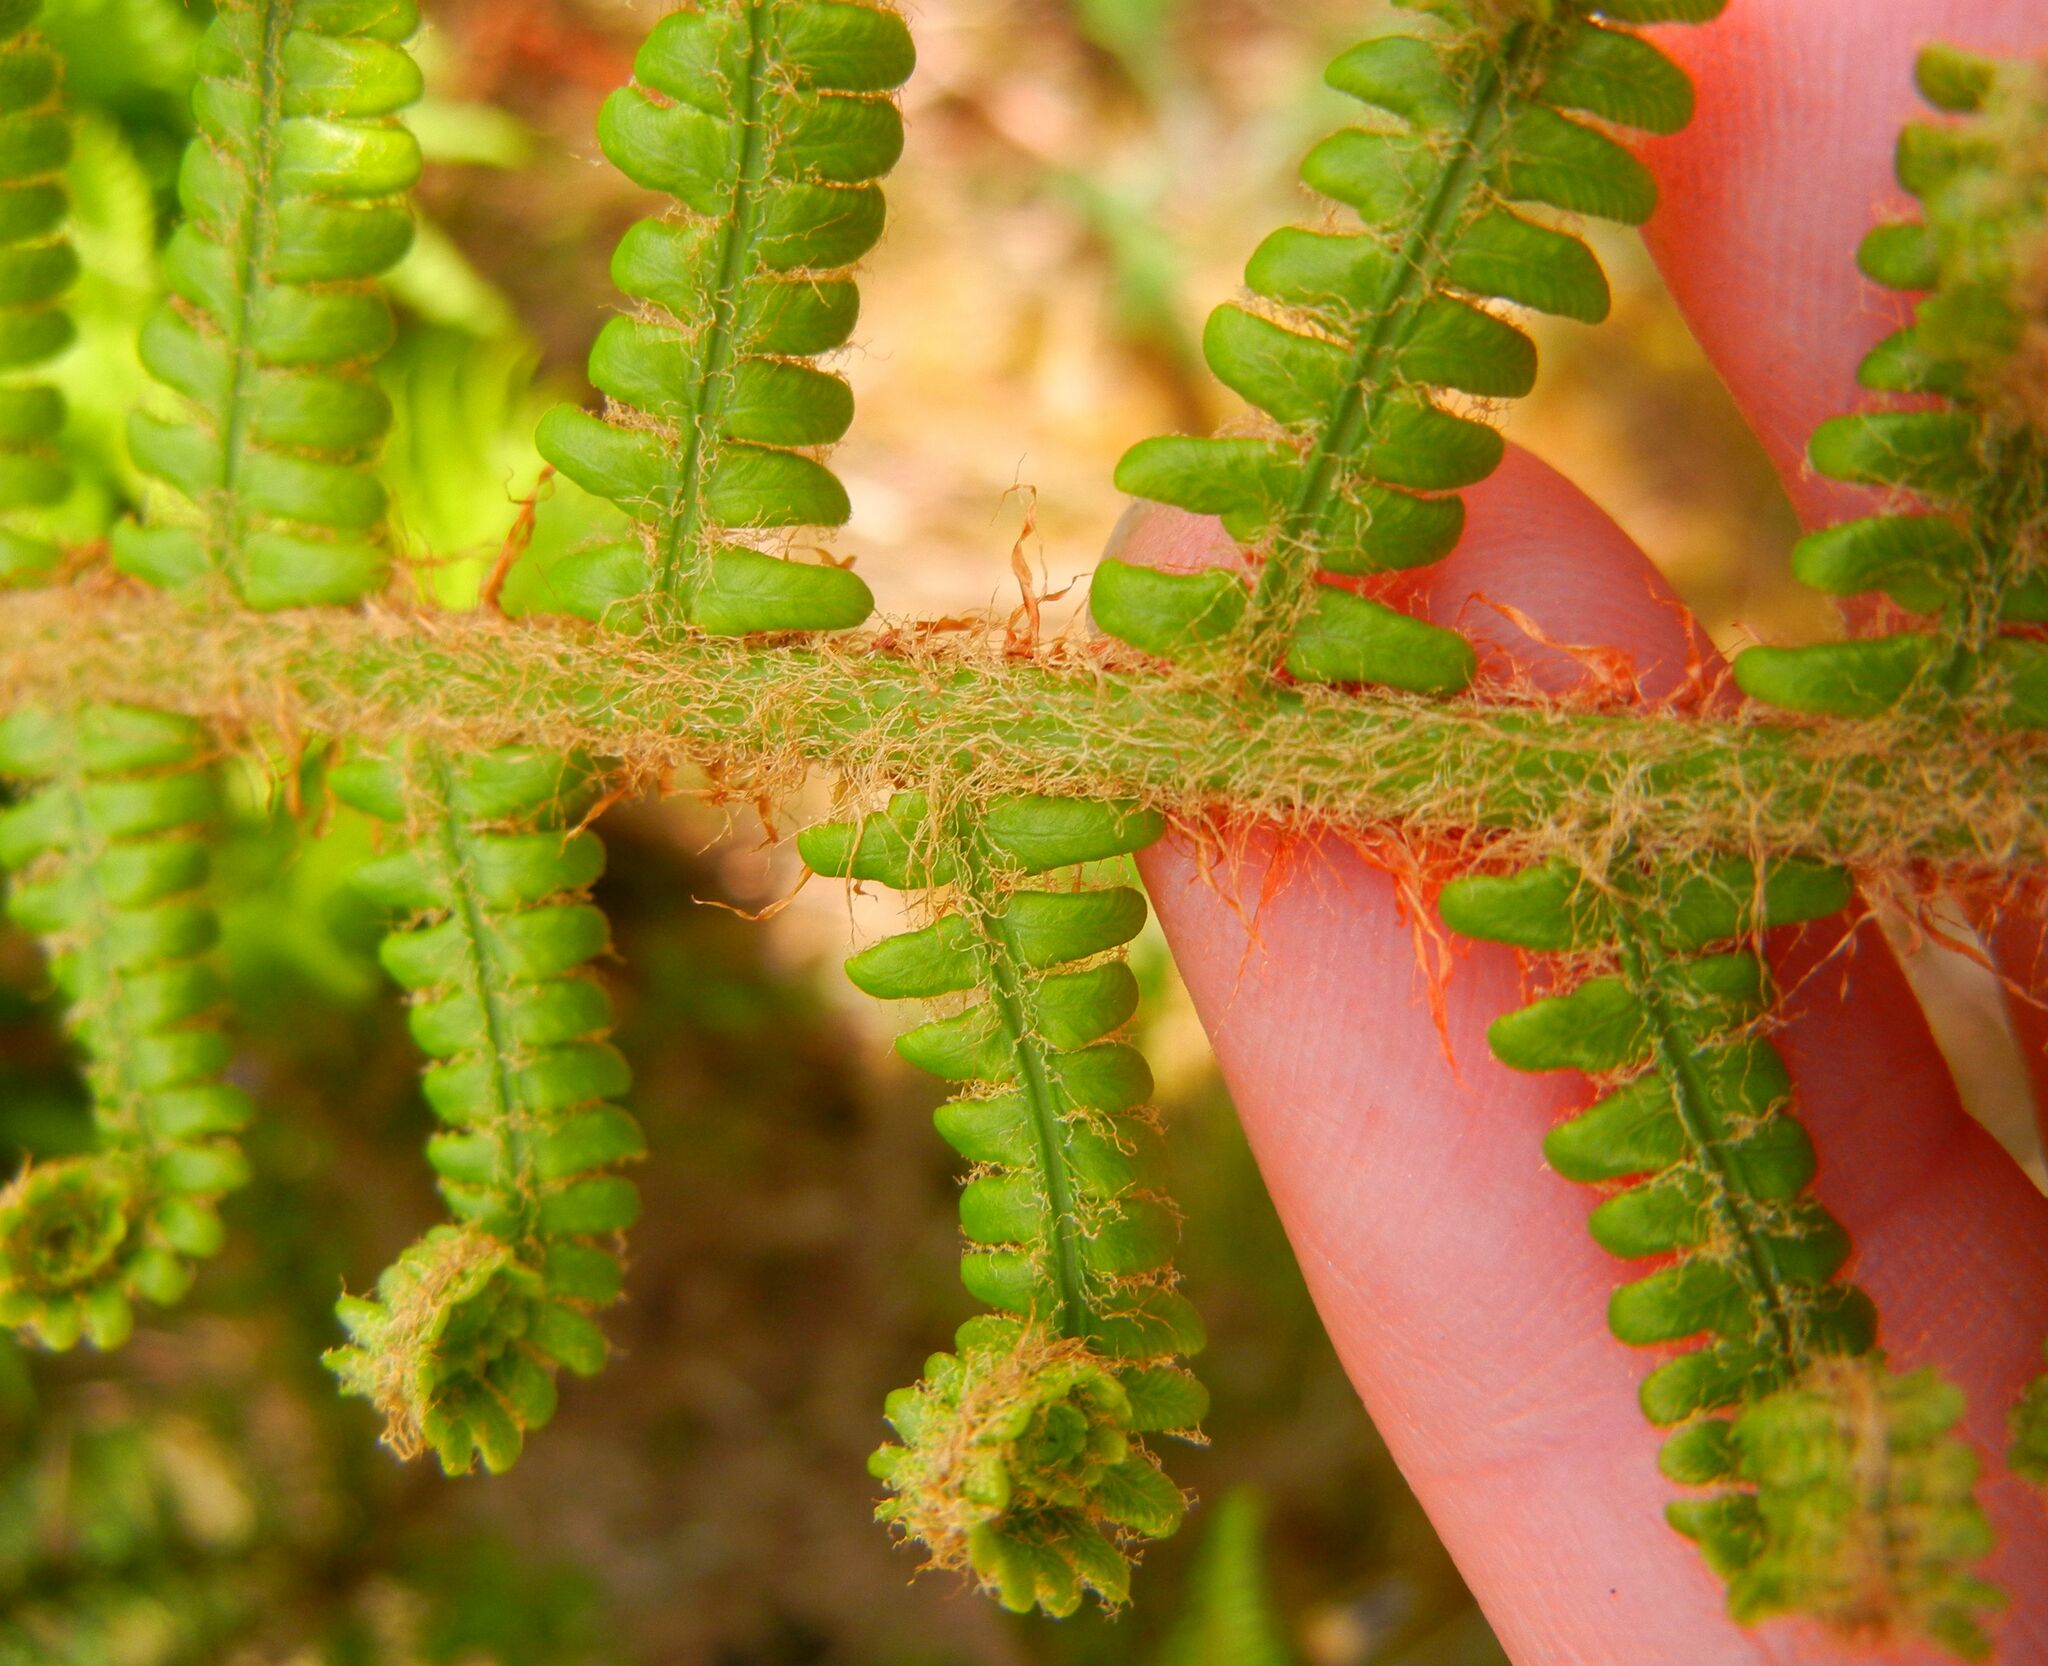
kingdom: Plantae
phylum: Tracheophyta
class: Polypodiopsida
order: Polypodiales
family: Dryopteridaceae
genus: Dryopteris
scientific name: Dryopteris affinis
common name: Scaly male fern
